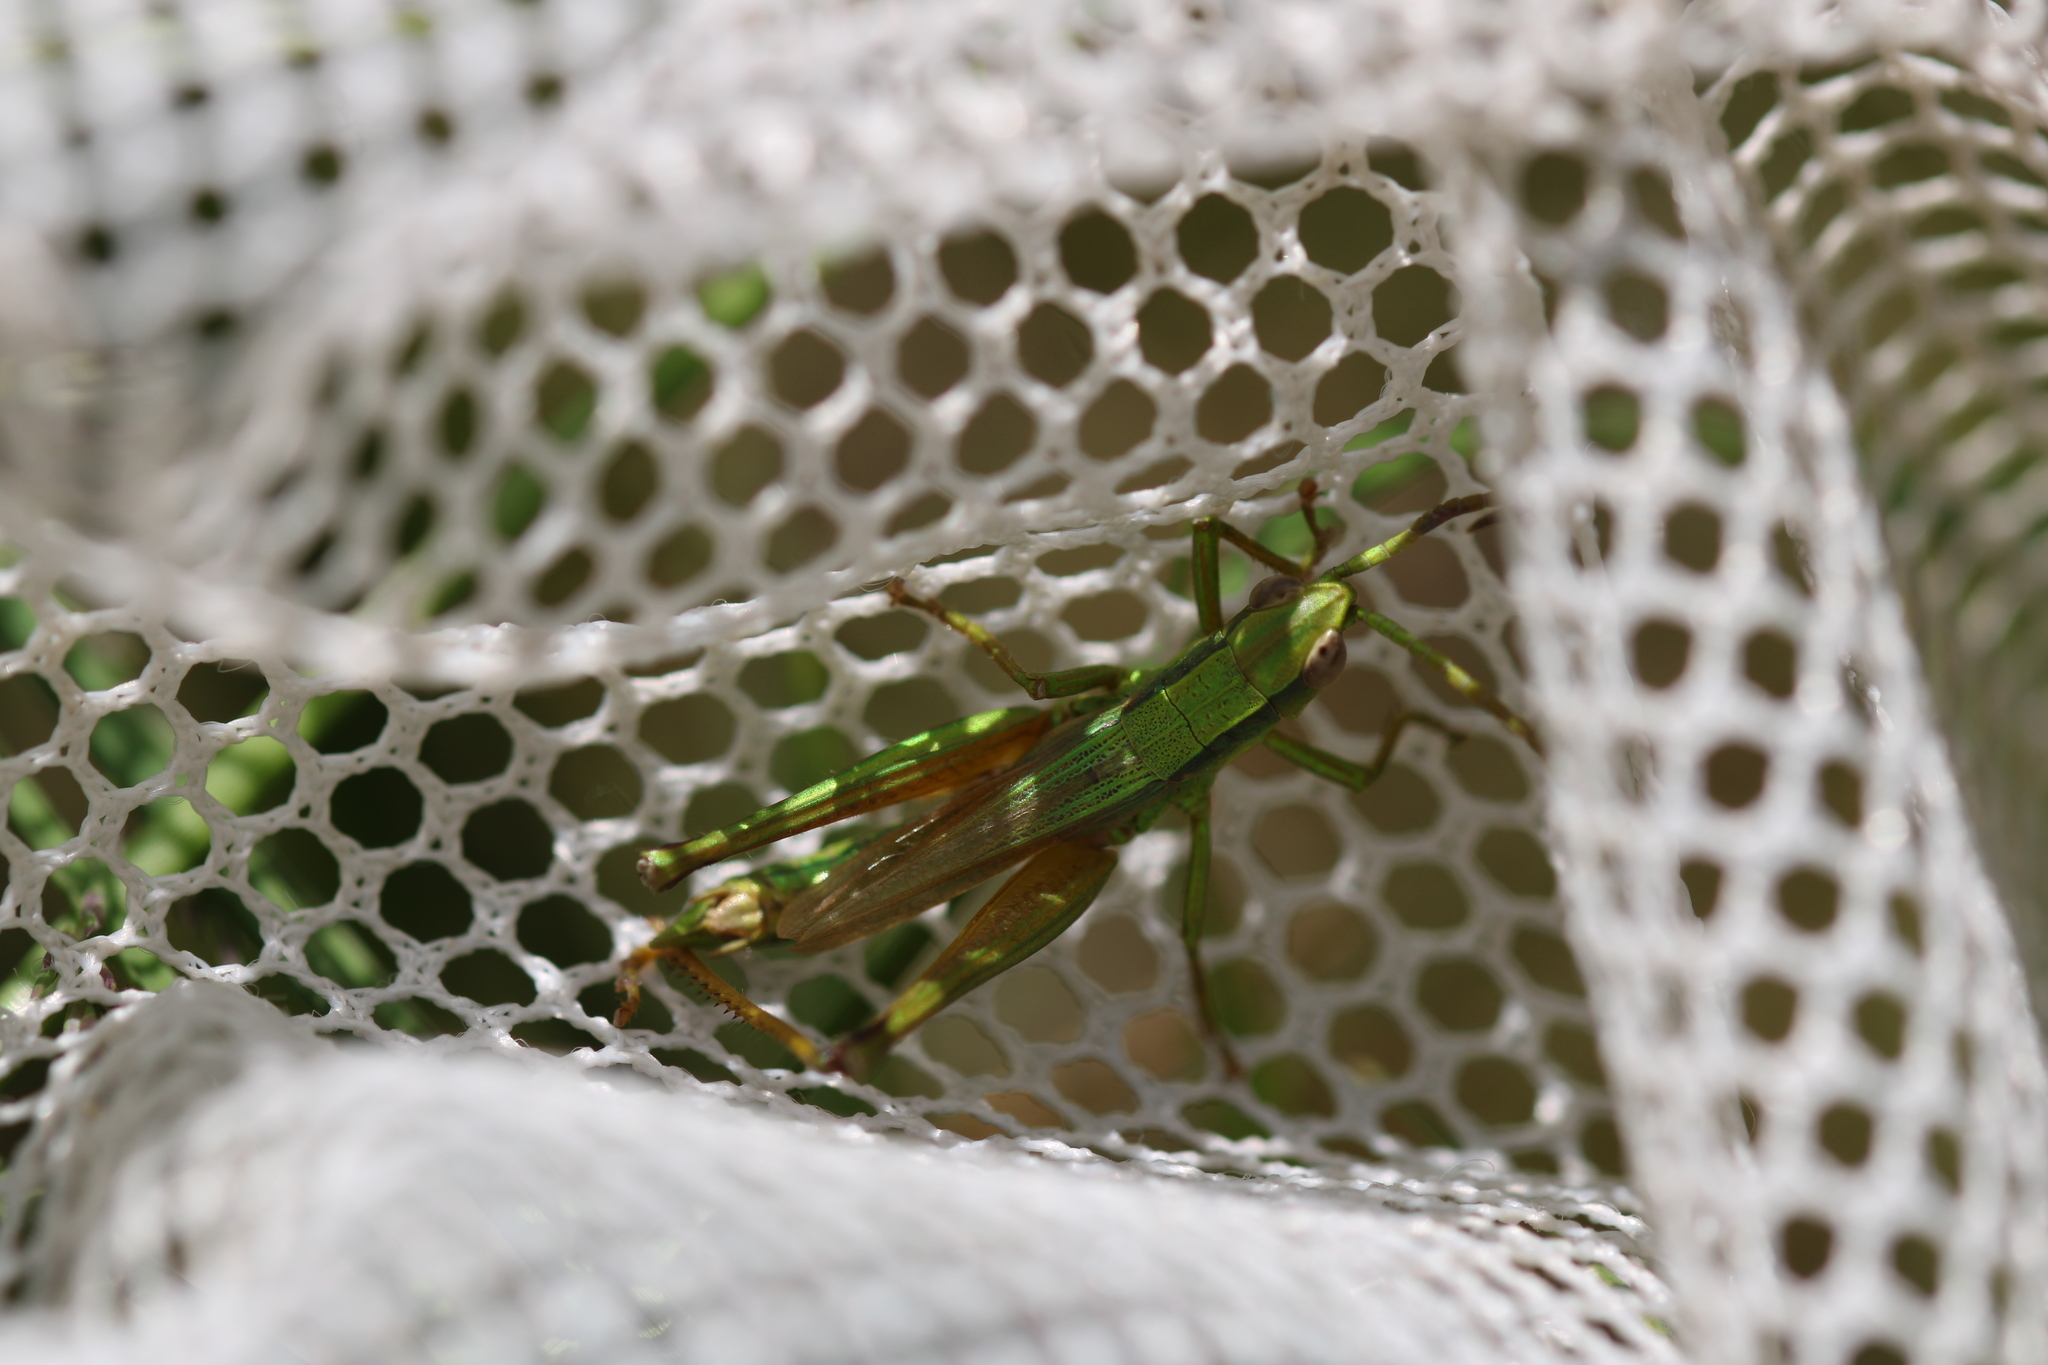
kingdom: Animalia
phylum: Arthropoda
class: Insecta
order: Orthoptera
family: Acrididae
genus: Chrysochraon
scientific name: Chrysochraon dispar
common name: Large gold grasshopper
